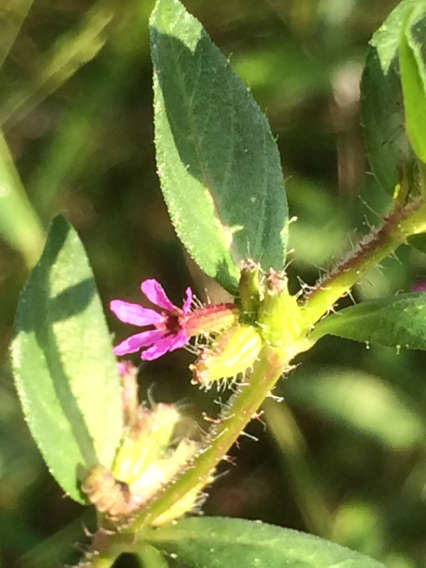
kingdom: Plantae
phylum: Tracheophyta
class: Magnoliopsida
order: Myrtales
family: Lythraceae
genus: Cuphea
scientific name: Cuphea carthagenensis
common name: Colombian waxweed
